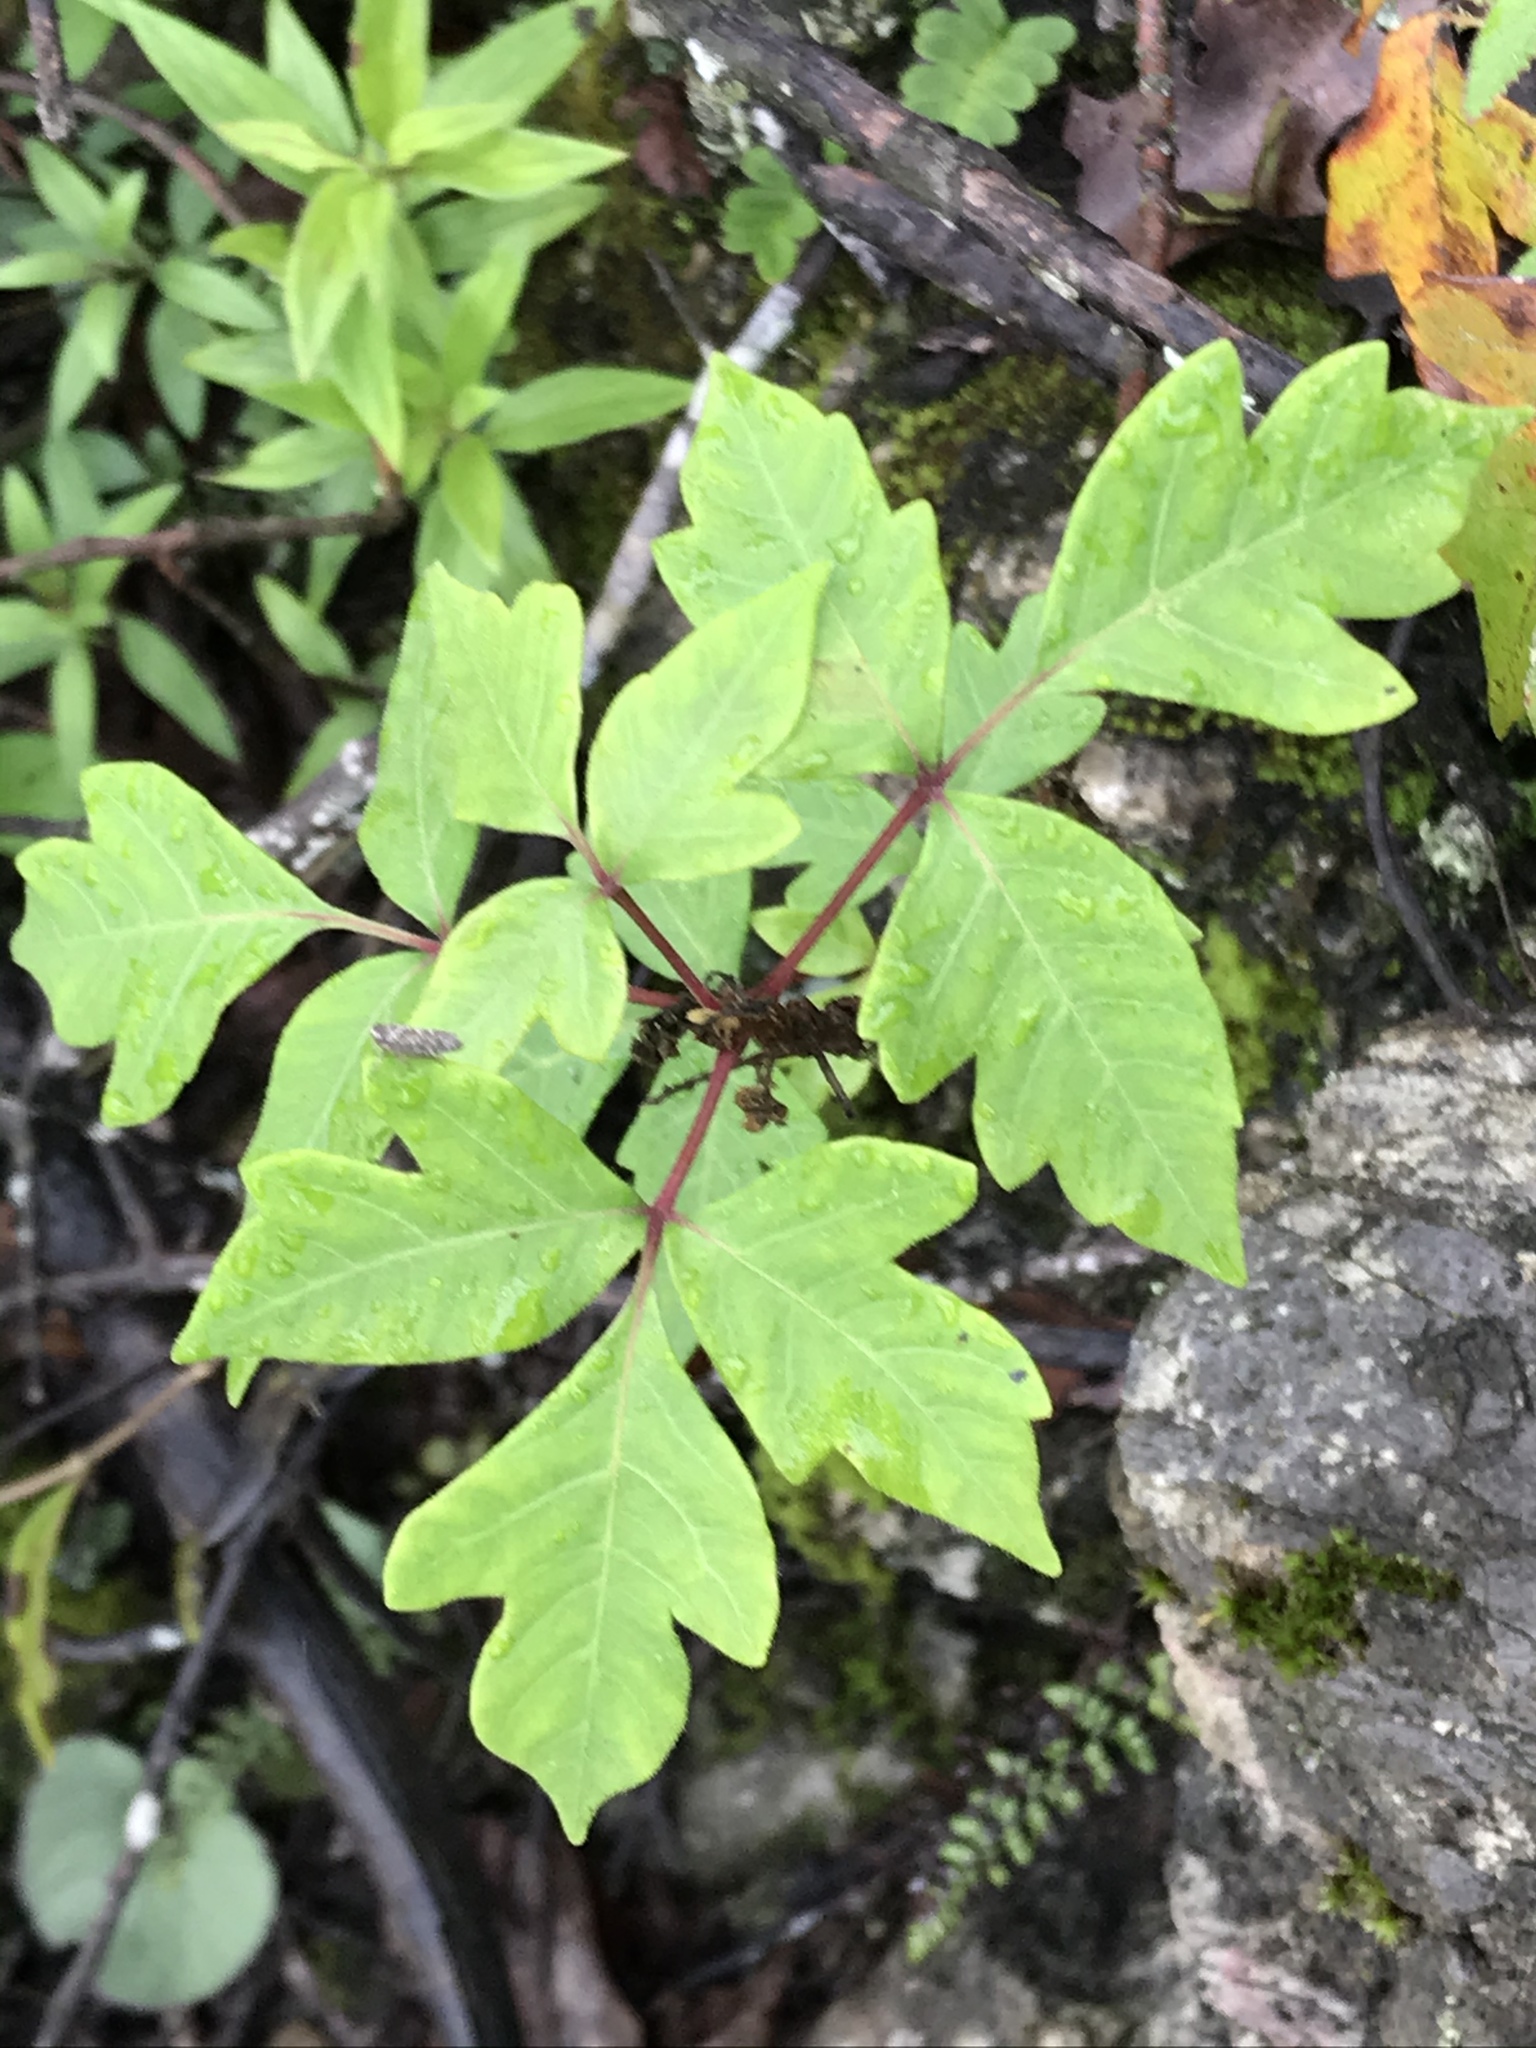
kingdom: Plantae
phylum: Tracheophyta
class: Magnoliopsida
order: Sapindales
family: Anacardiaceae
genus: Toxicodendron
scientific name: Toxicodendron radicans
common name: Poison ivy
